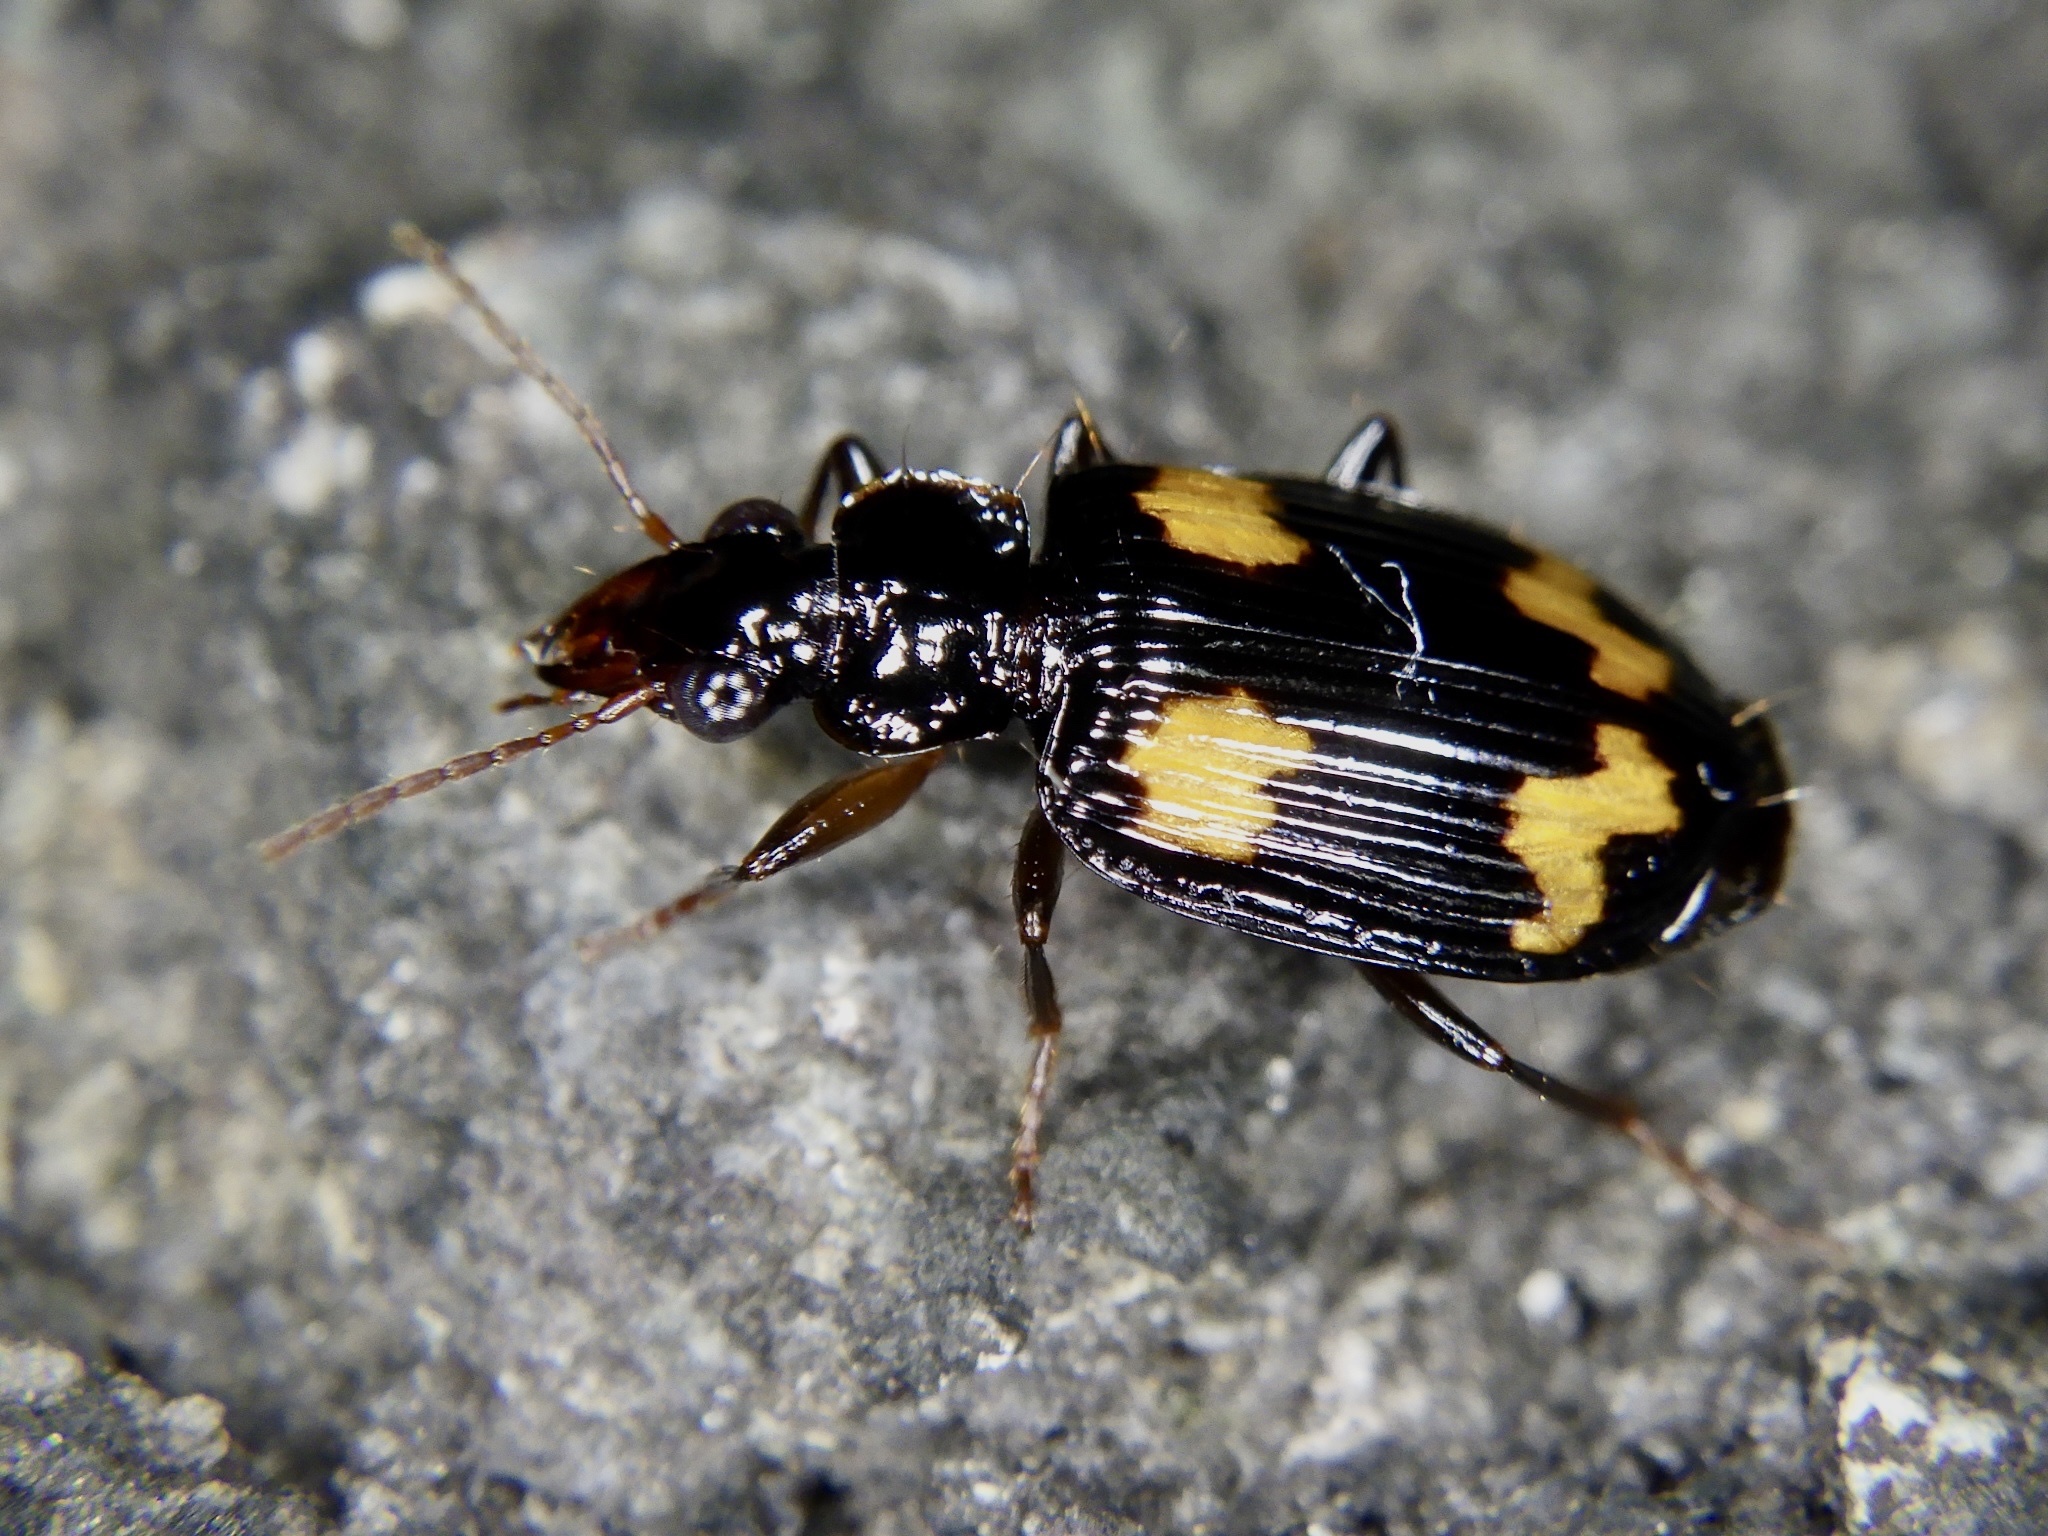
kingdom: Animalia
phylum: Arthropoda
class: Insecta
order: Coleoptera
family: Carabidae
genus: Coptodera
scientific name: Coptodera japonica
